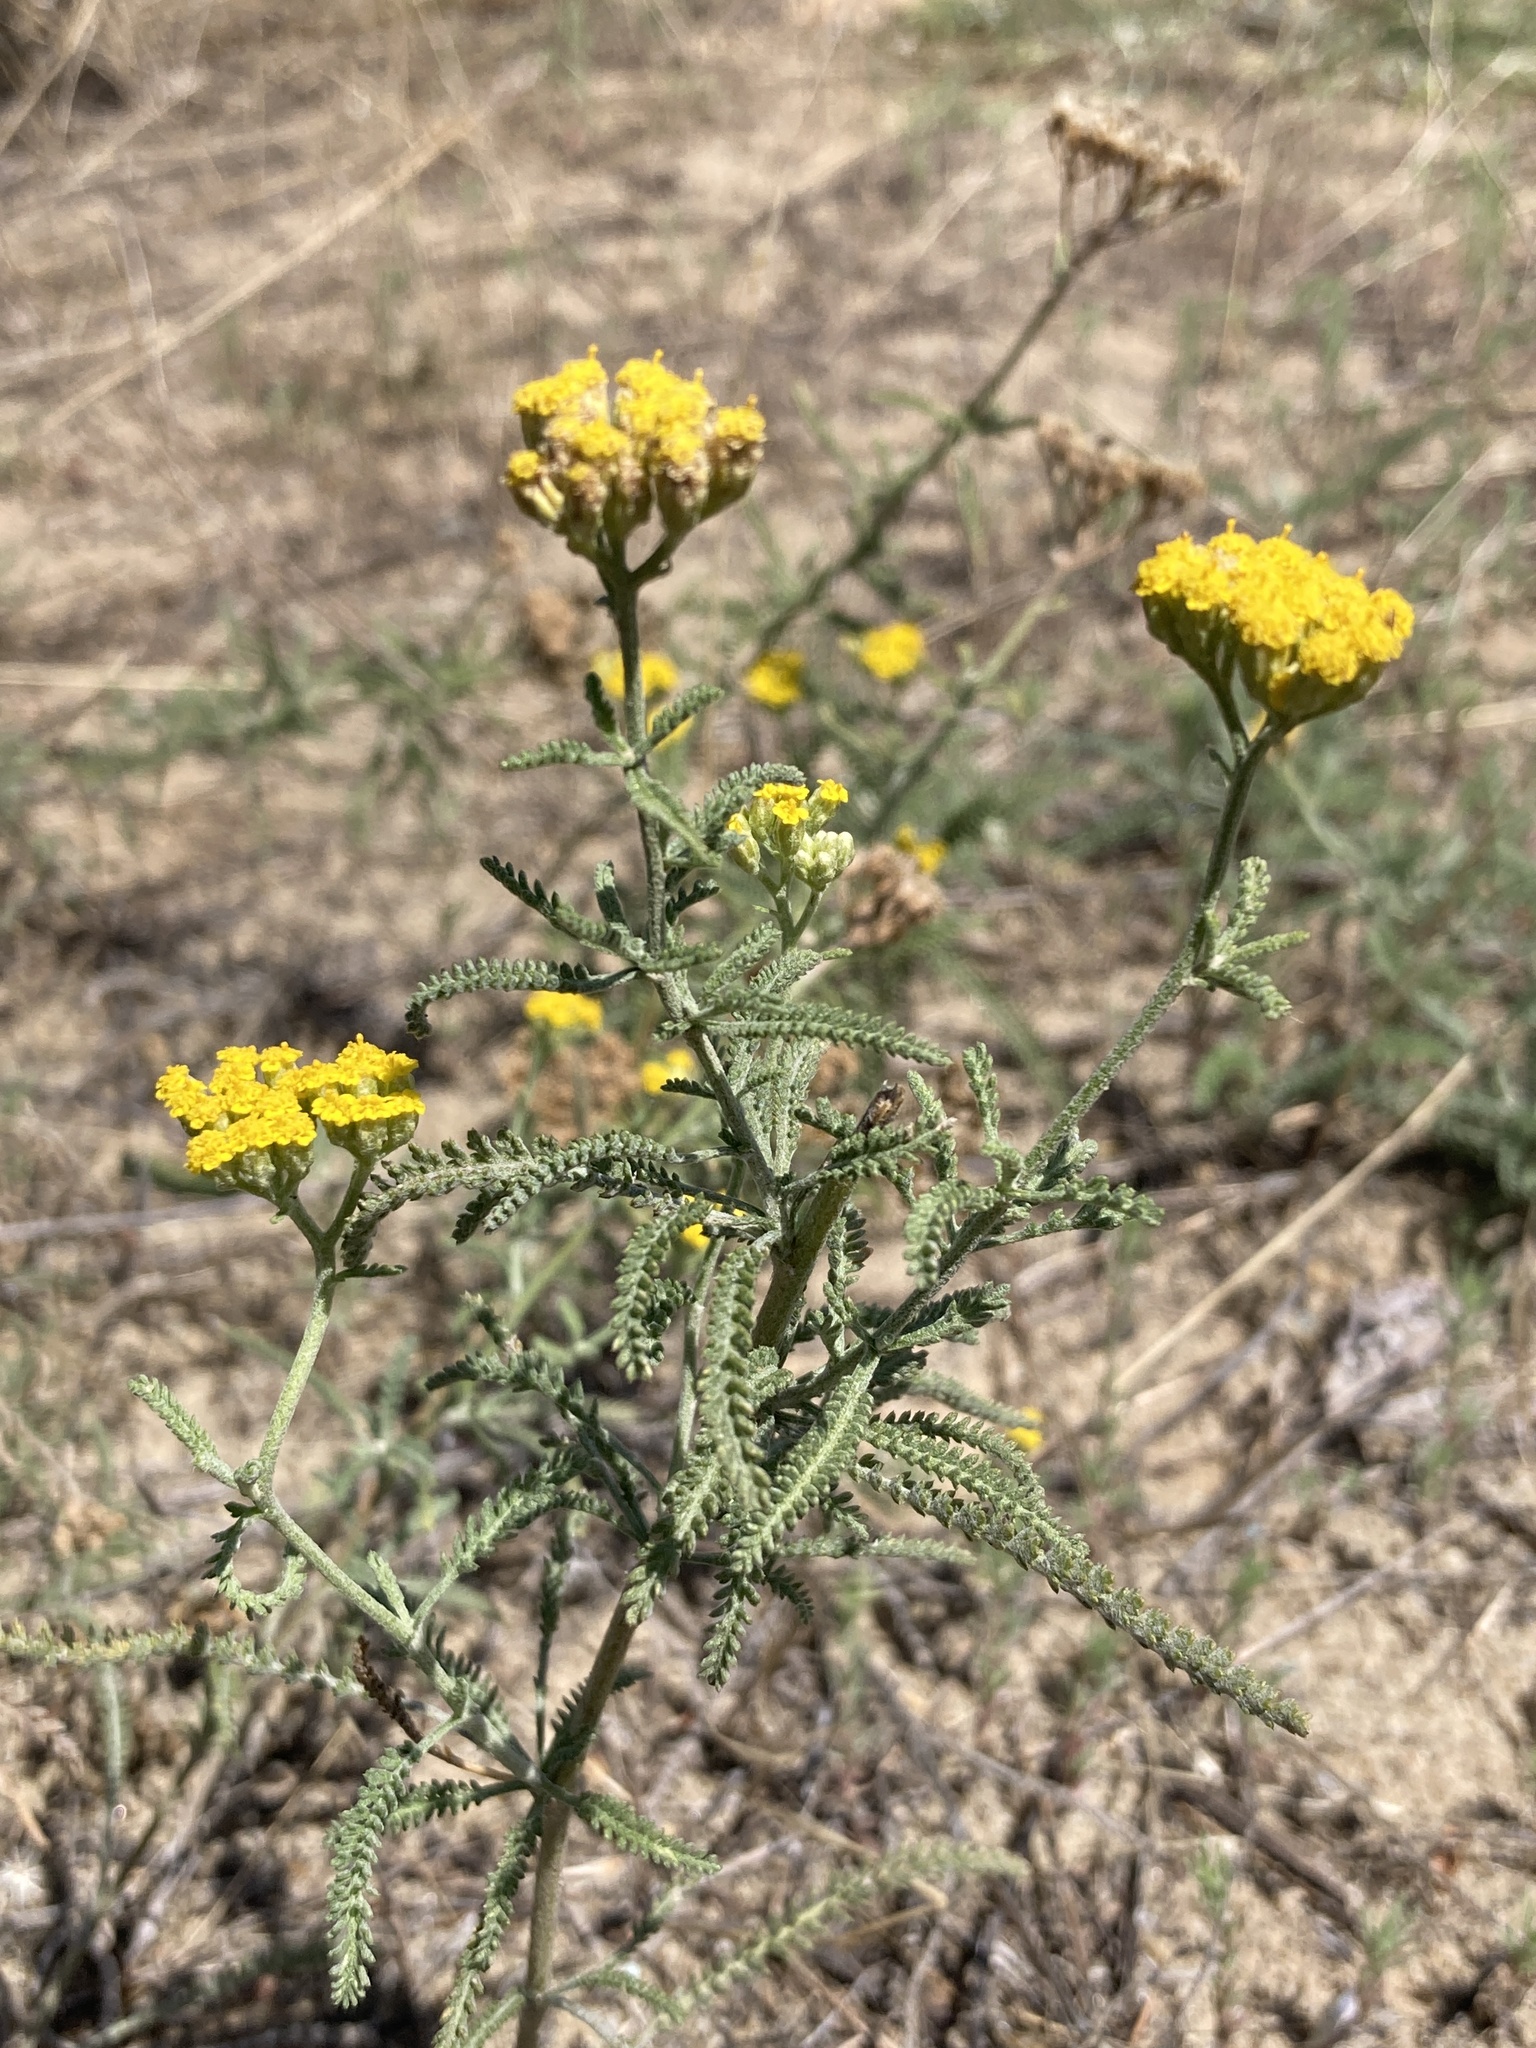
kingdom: Plantae
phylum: Tracheophyta
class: Magnoliopsida
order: Asterales
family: Asteraceae
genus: Achillea
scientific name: Achillea micrantha
